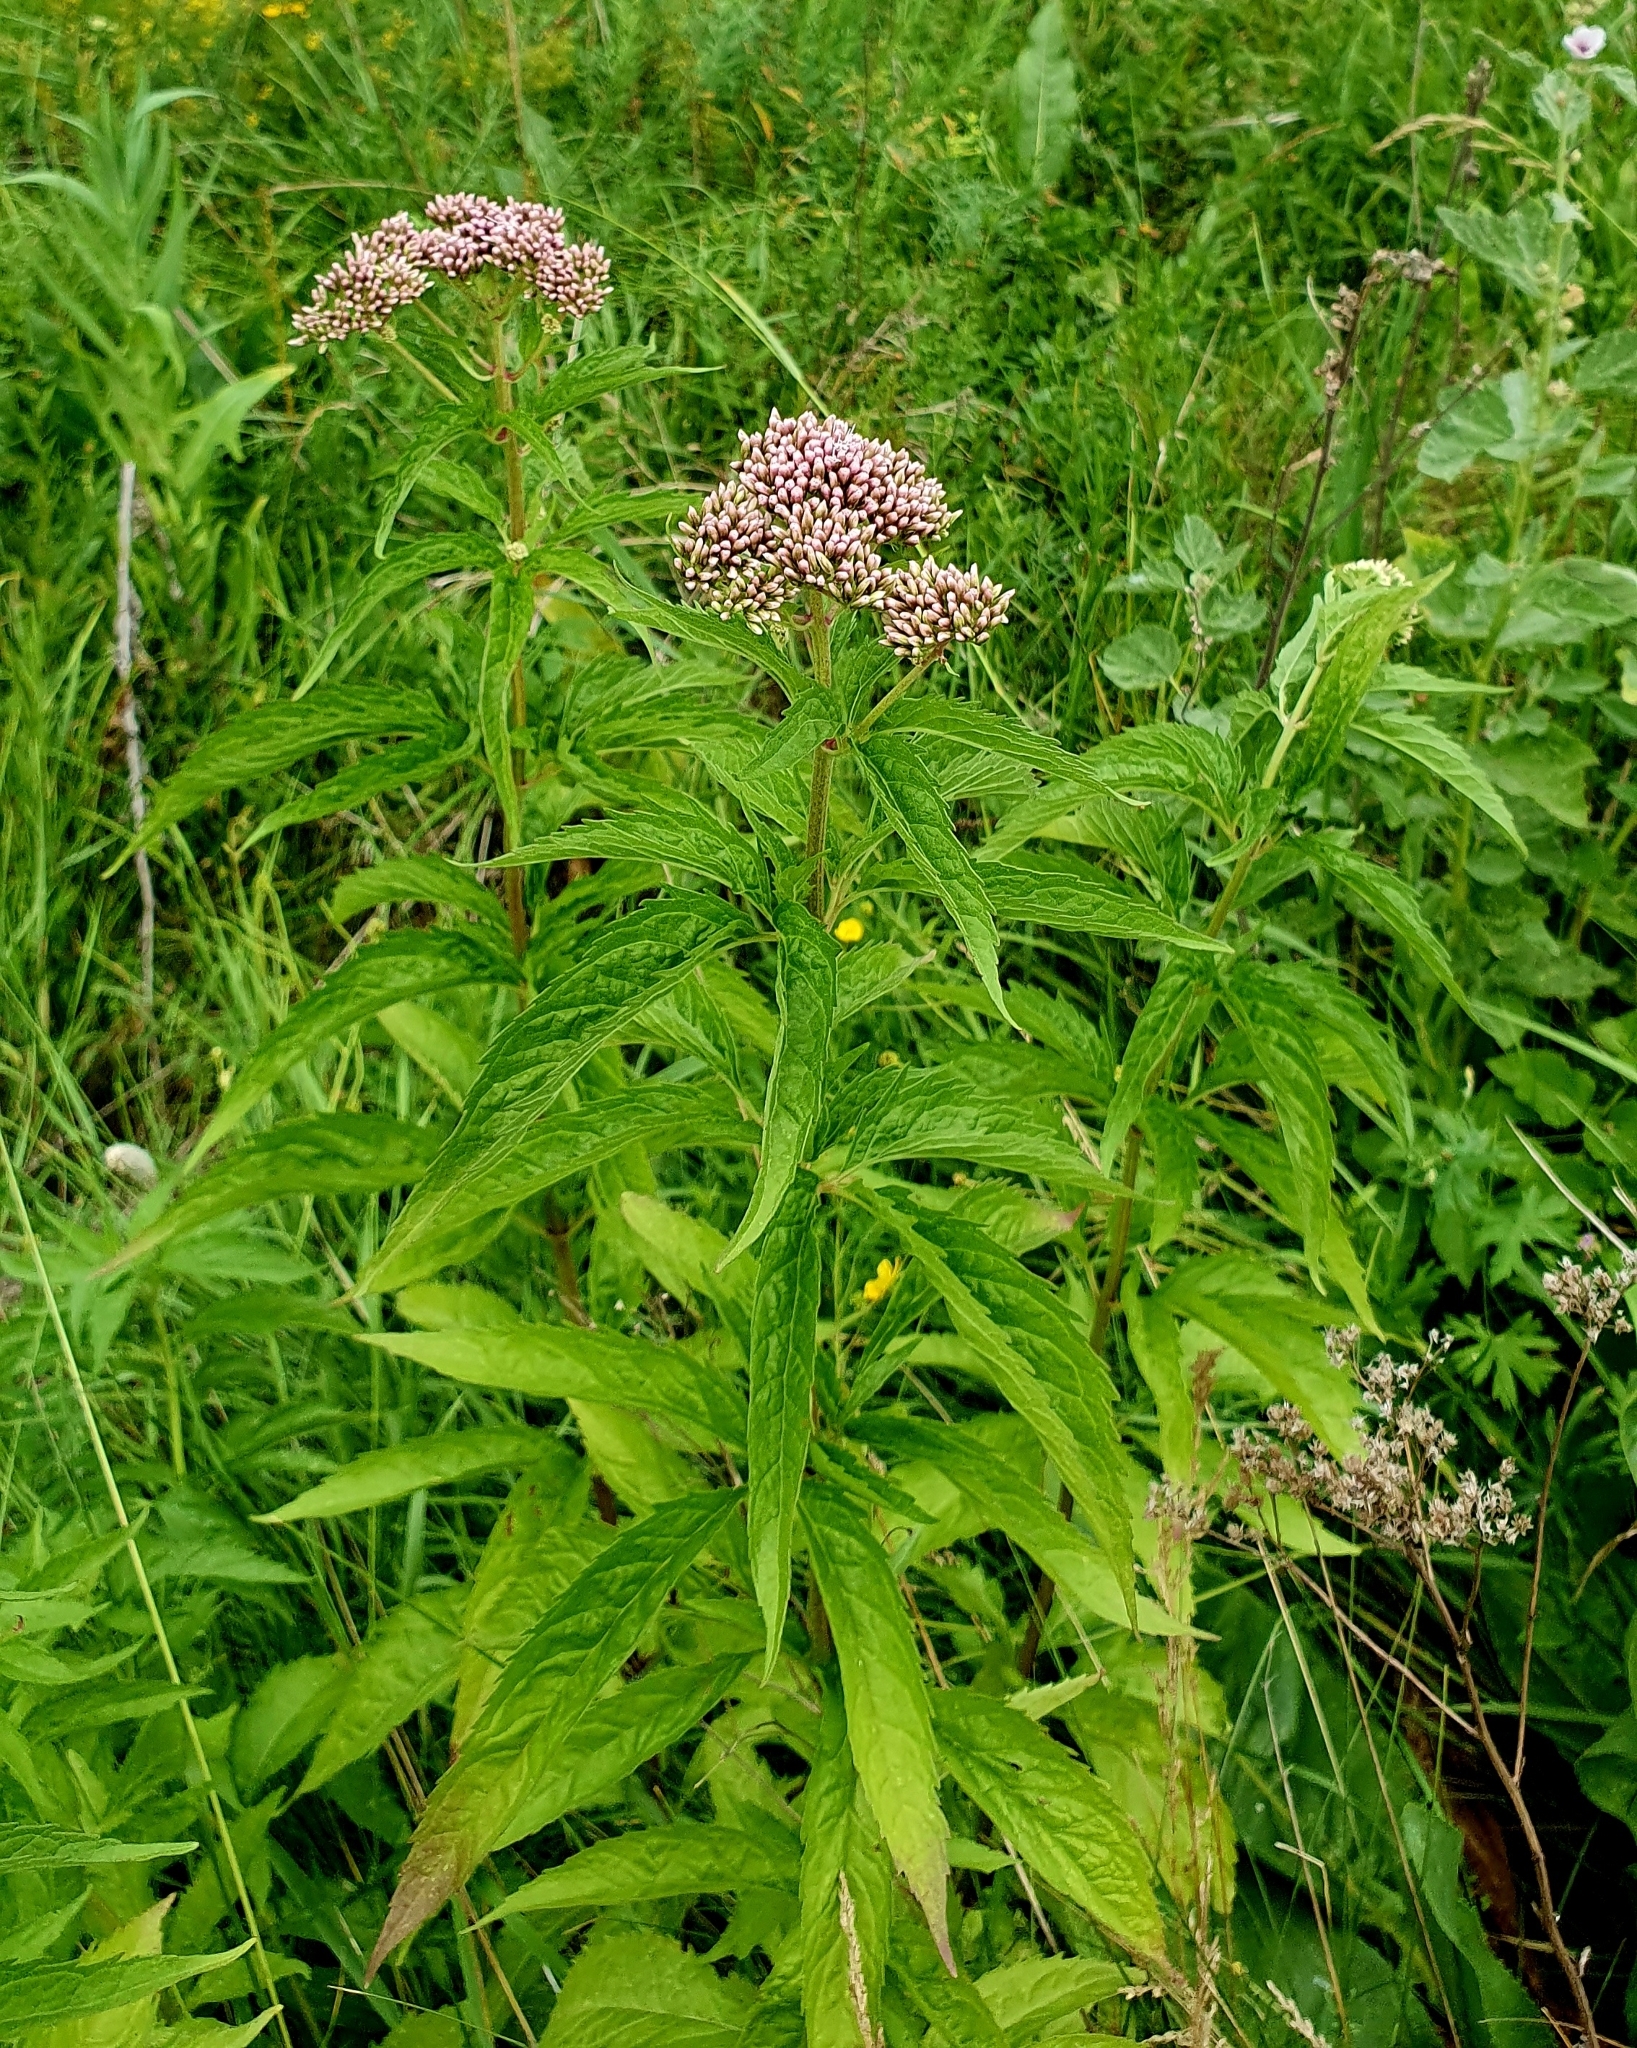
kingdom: Plantae
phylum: Tracheophyta
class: Magnoliopsida
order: Asterales
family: Asteraceae
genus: Eupatorium
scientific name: Eupatorium cannabinum
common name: Hemp-agrimony
